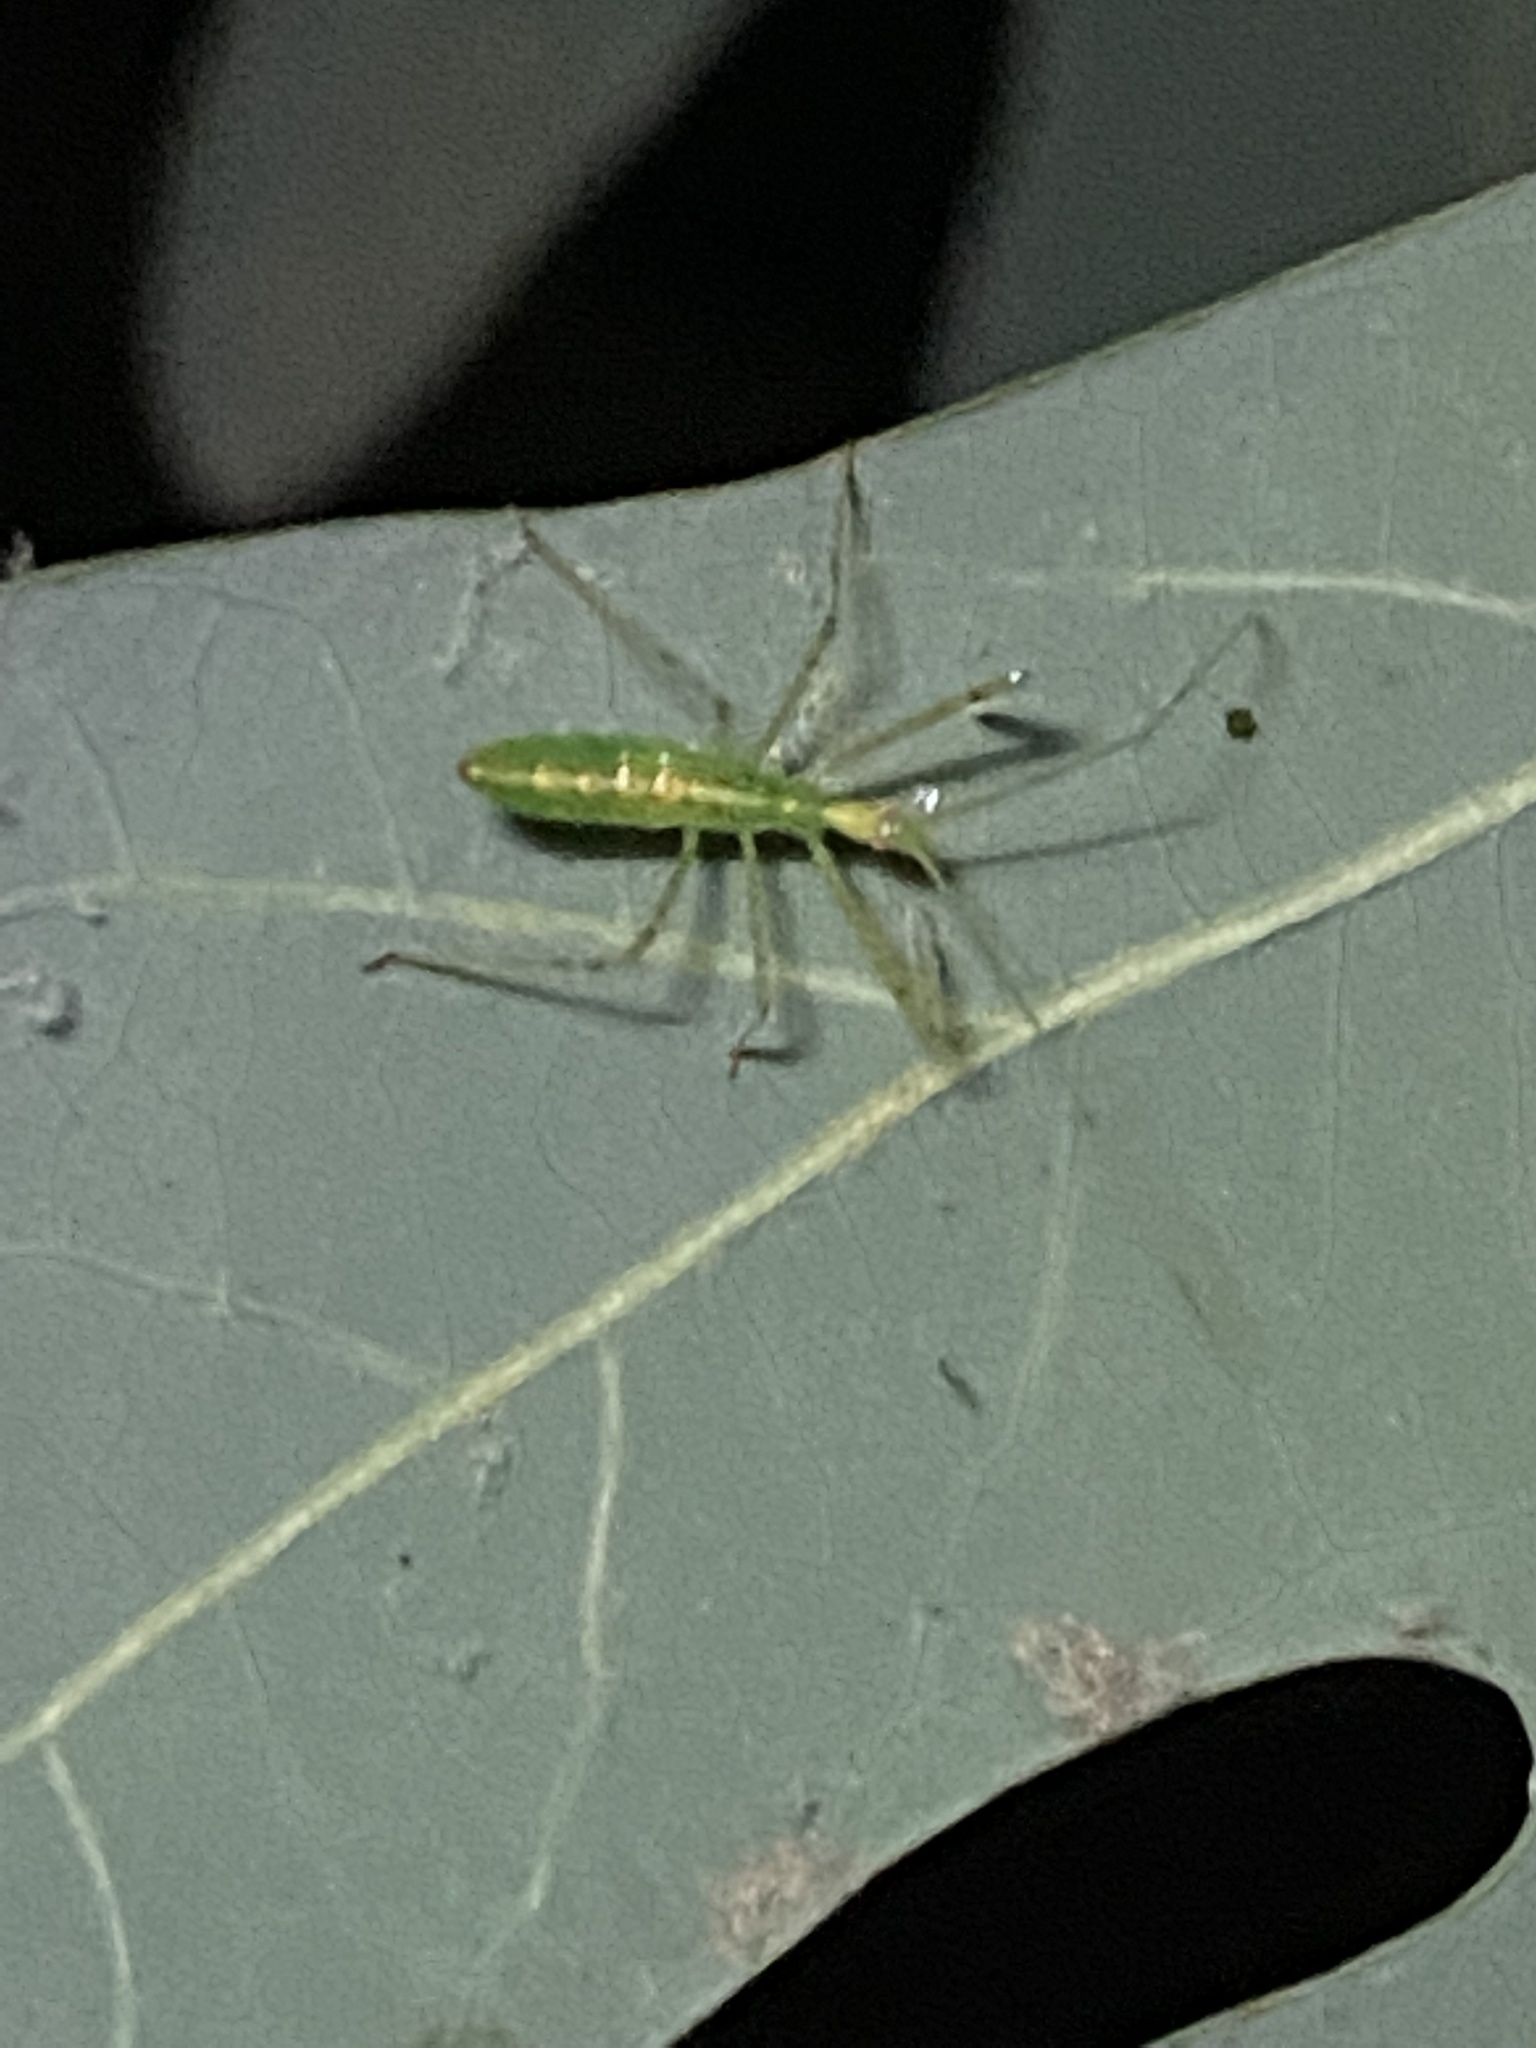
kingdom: Animalia
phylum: Arthropoda
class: Insecta
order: Hemiptera
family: Reduviidae
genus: Zelus
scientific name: Zelus luridus
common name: Pale green assassin bug
